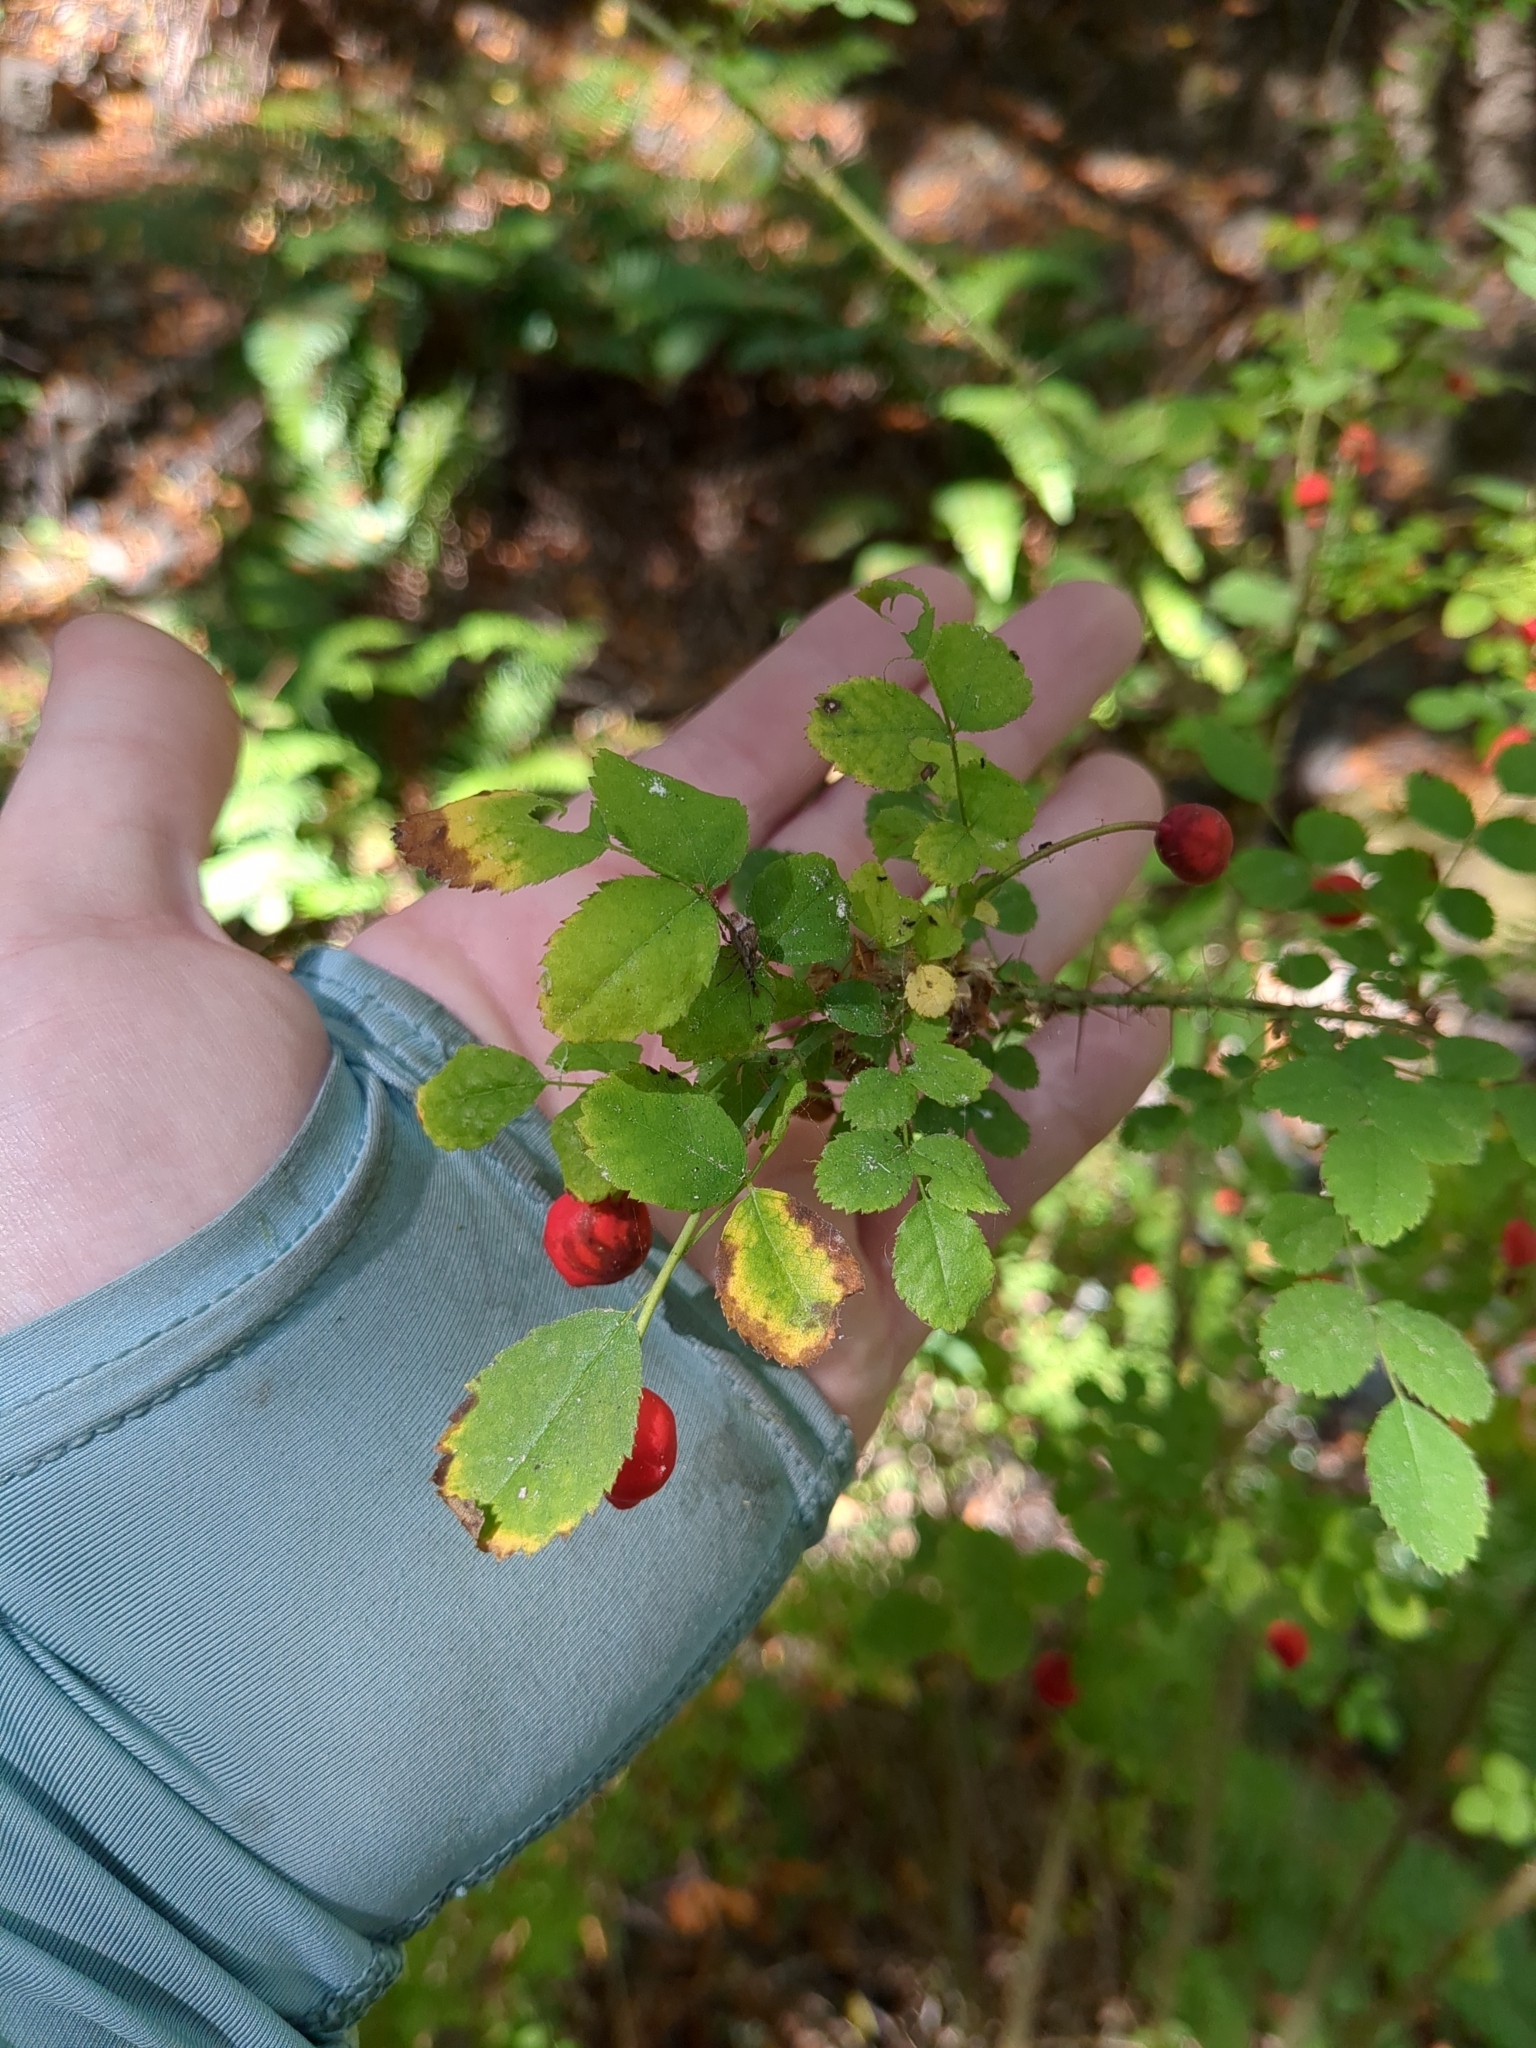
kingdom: Plantae
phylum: Tracheophyta
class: Magnoliopsida
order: Rosales
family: Rosaceae
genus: Rosa
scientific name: Rosa gymnocarpa
